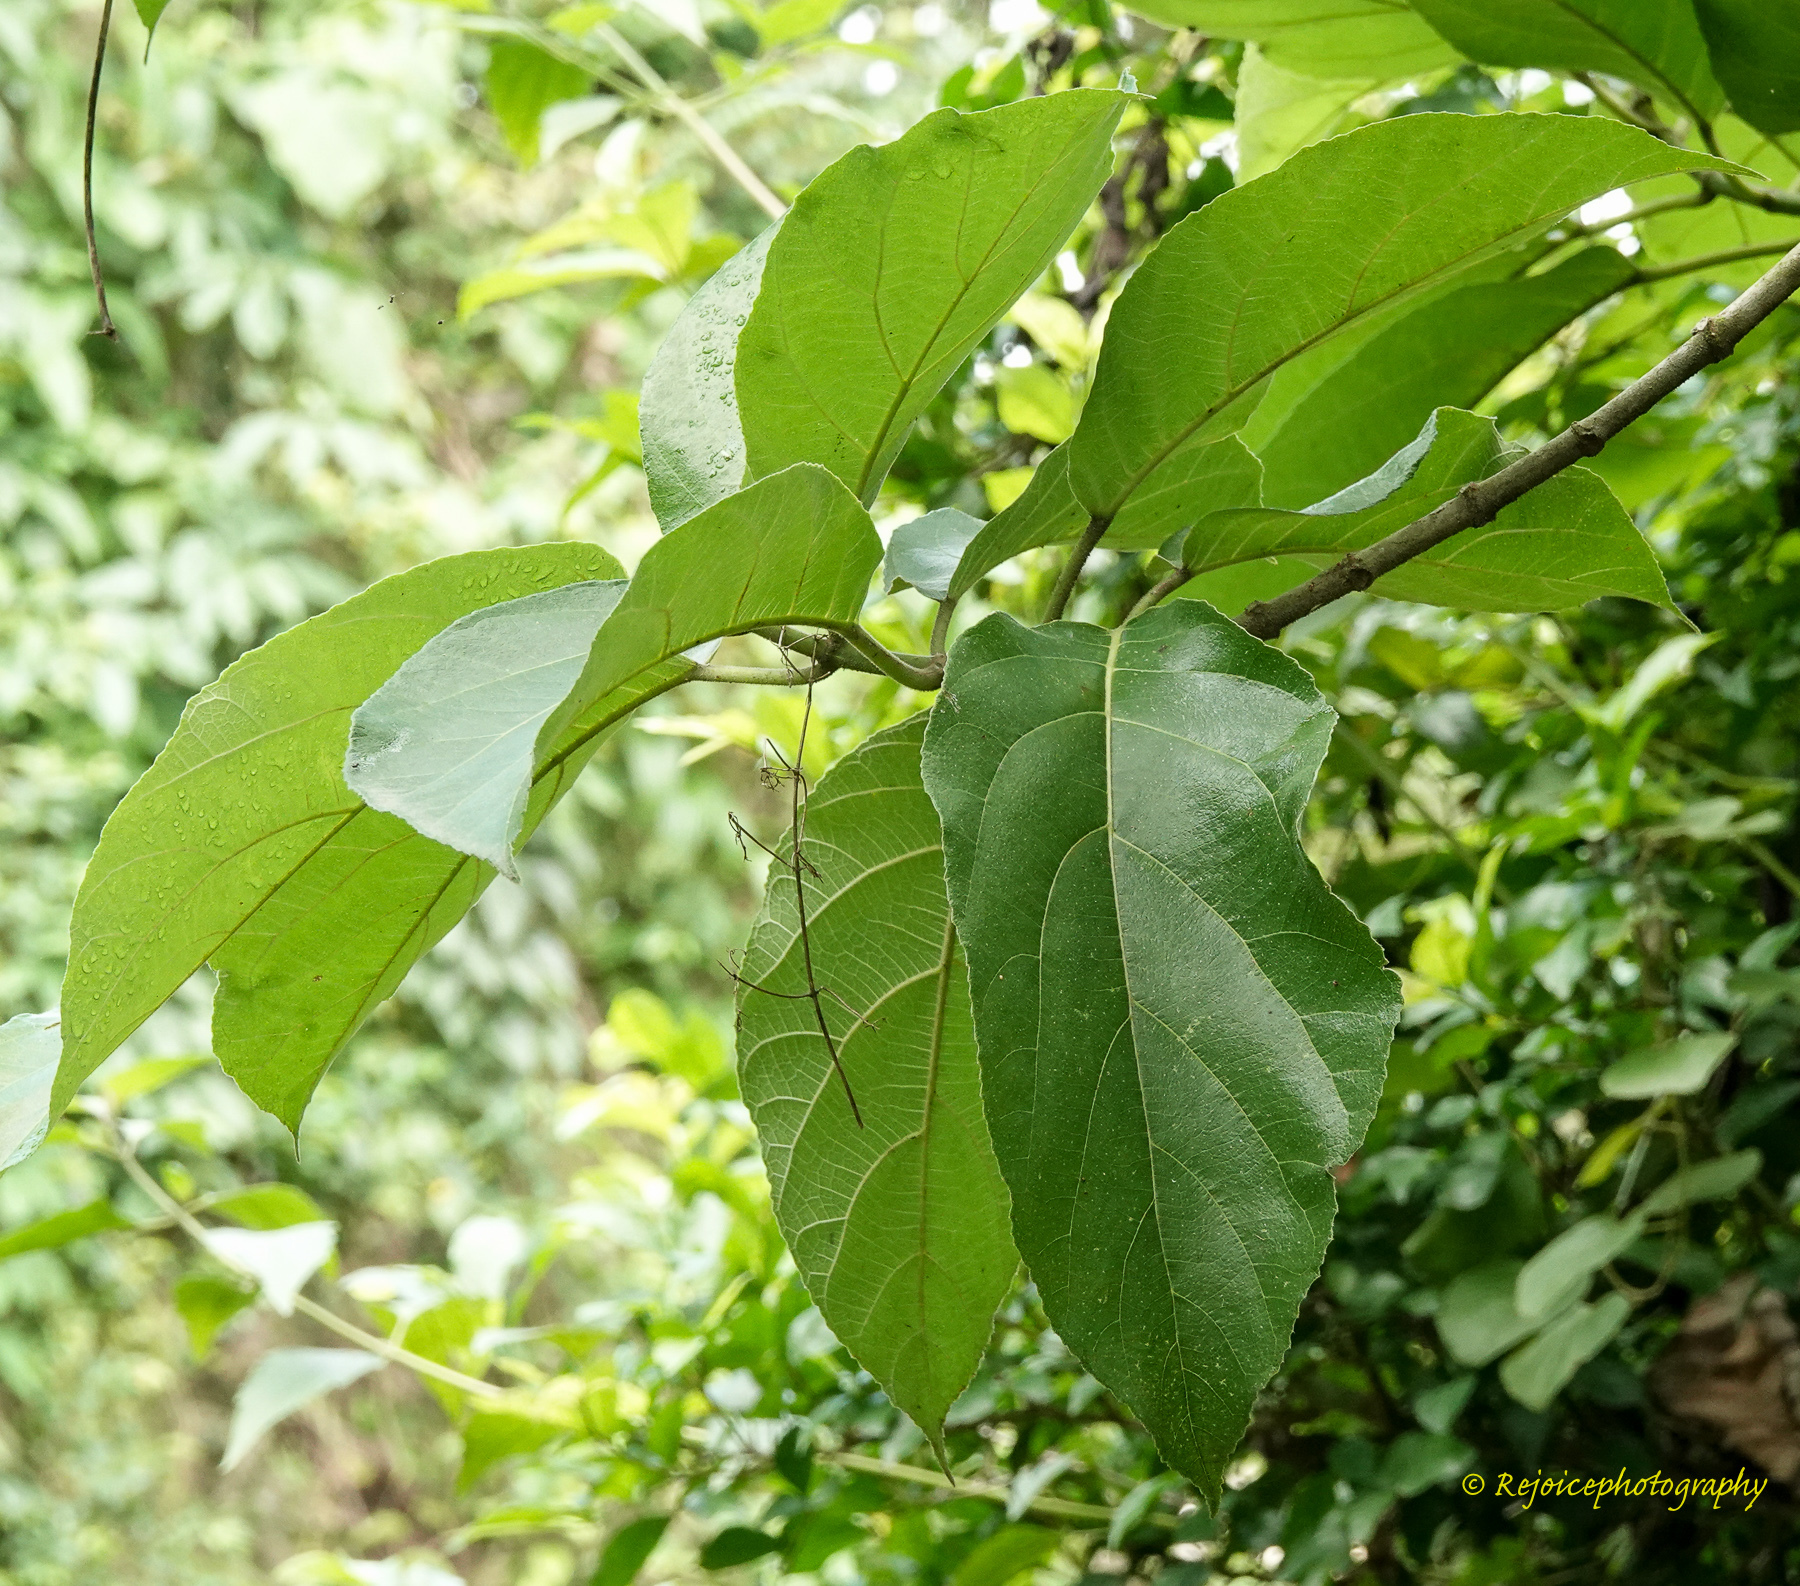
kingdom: Plantae
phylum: Tracheophyta
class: Magnoliopsida
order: Rosales
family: Moraceae
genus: Ficus
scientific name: Ficus hispida
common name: Hairy fig
